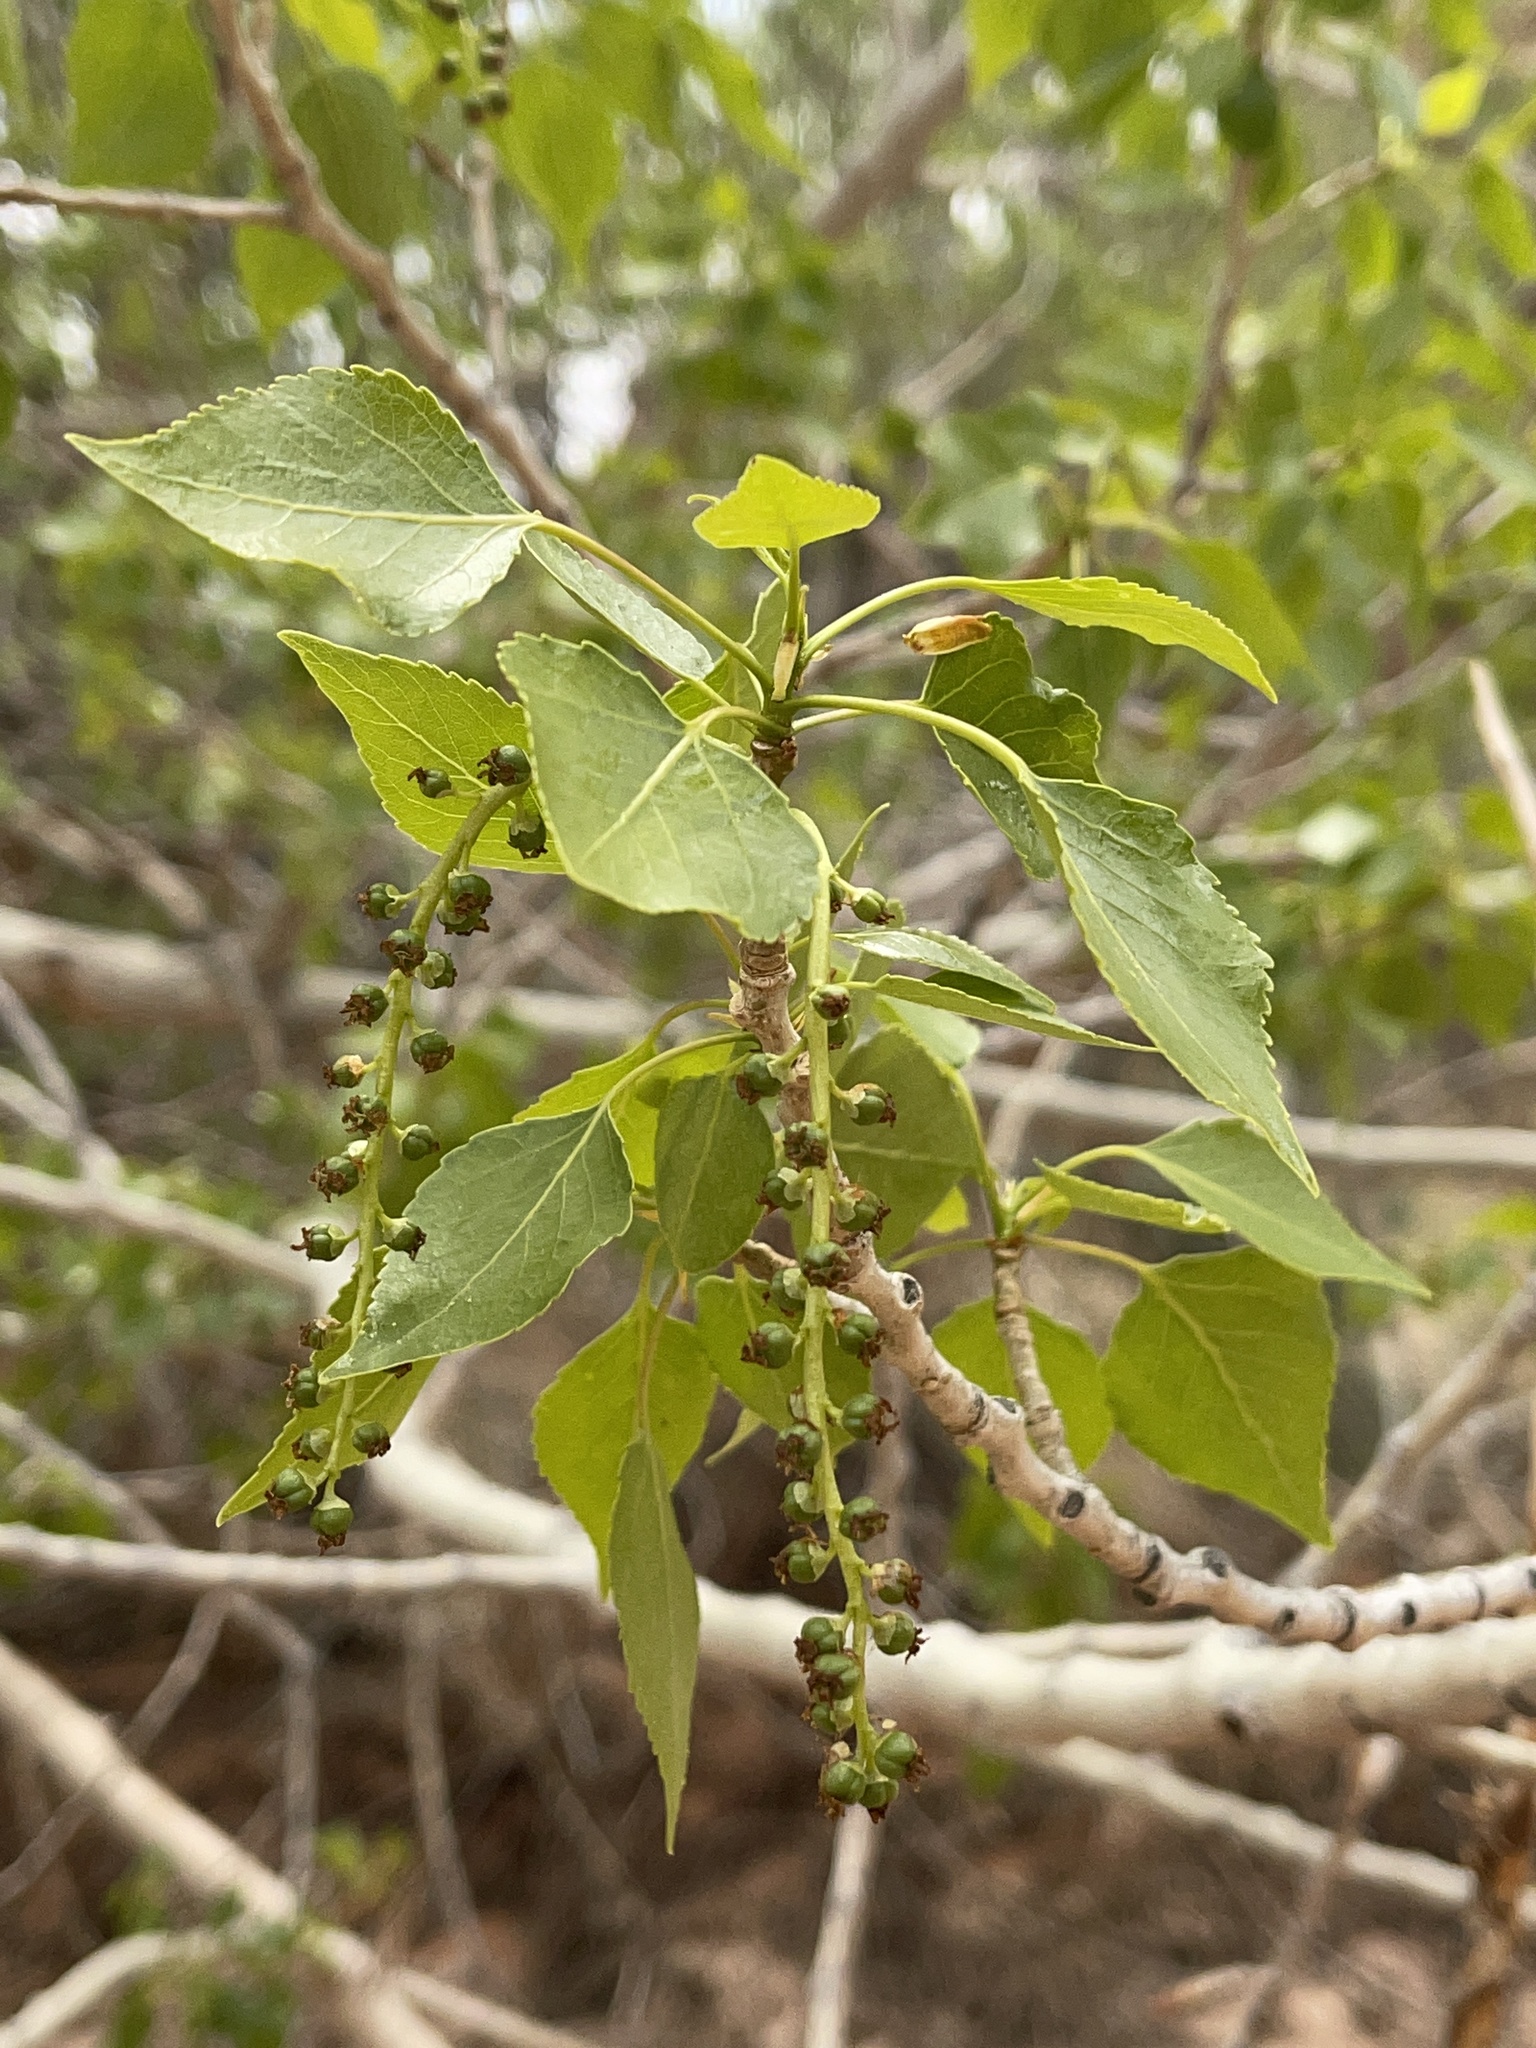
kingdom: Plantae
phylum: Tracheophyta
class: Magnoliopsida
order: Malpighiales
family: Salicaceae
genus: Populus
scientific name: Populus fremontii
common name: Fremont's cottonwood
